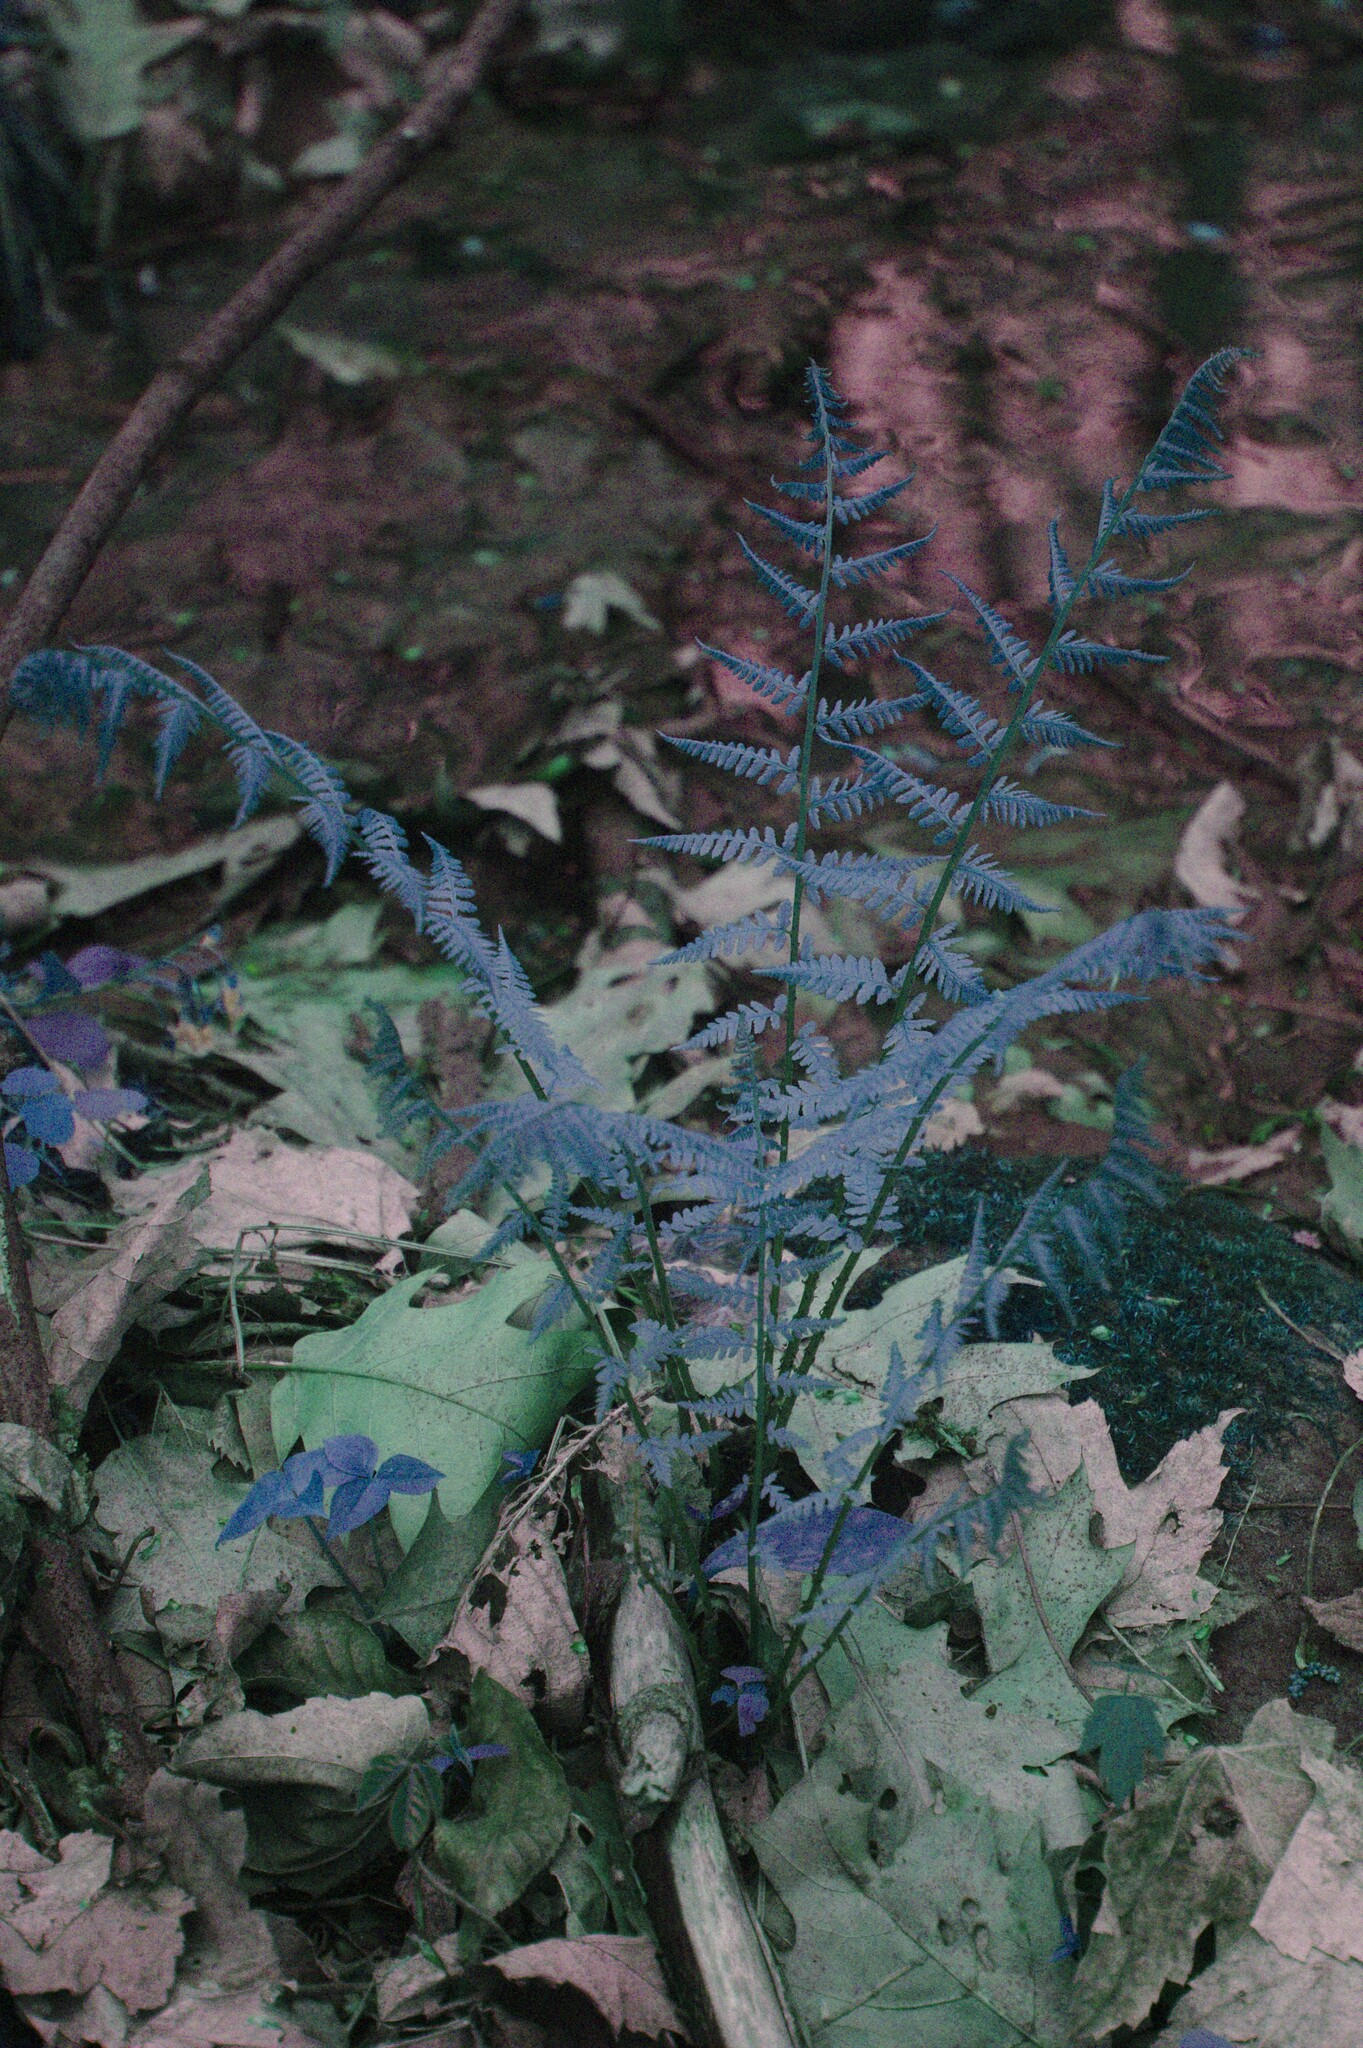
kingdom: Plantae
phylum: Tracheophyta
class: Polypodiopsida
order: Polypodiales
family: Athyriaceae
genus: Athyrium
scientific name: Athyrium angustum
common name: Northern lady fern
